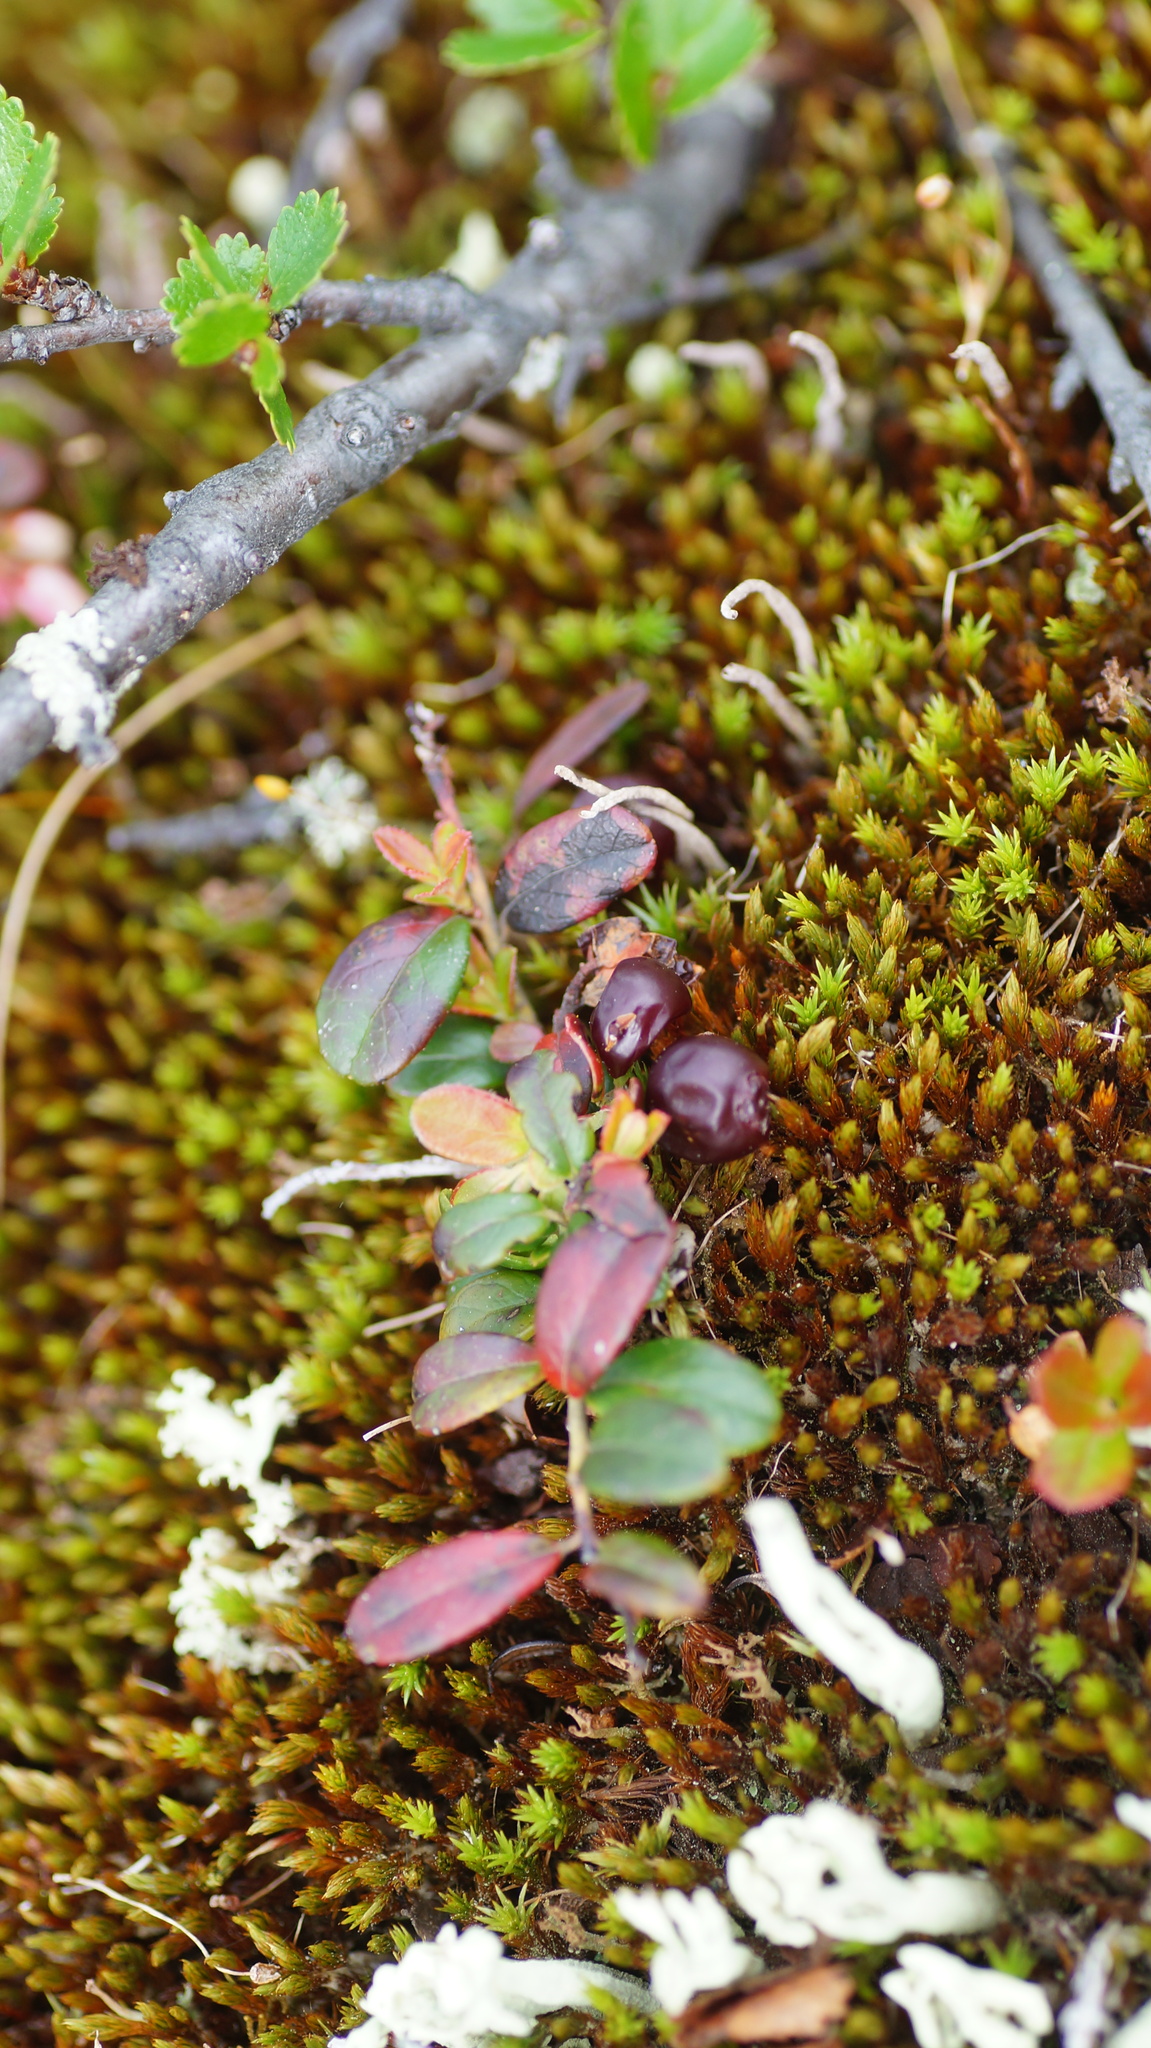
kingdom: Plantae
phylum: Tracheophyta
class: Magnoliopsida
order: Ericales
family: Ericaceae
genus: Vaccinium
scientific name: Vaccinium vitis-idaea
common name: Cowberry
